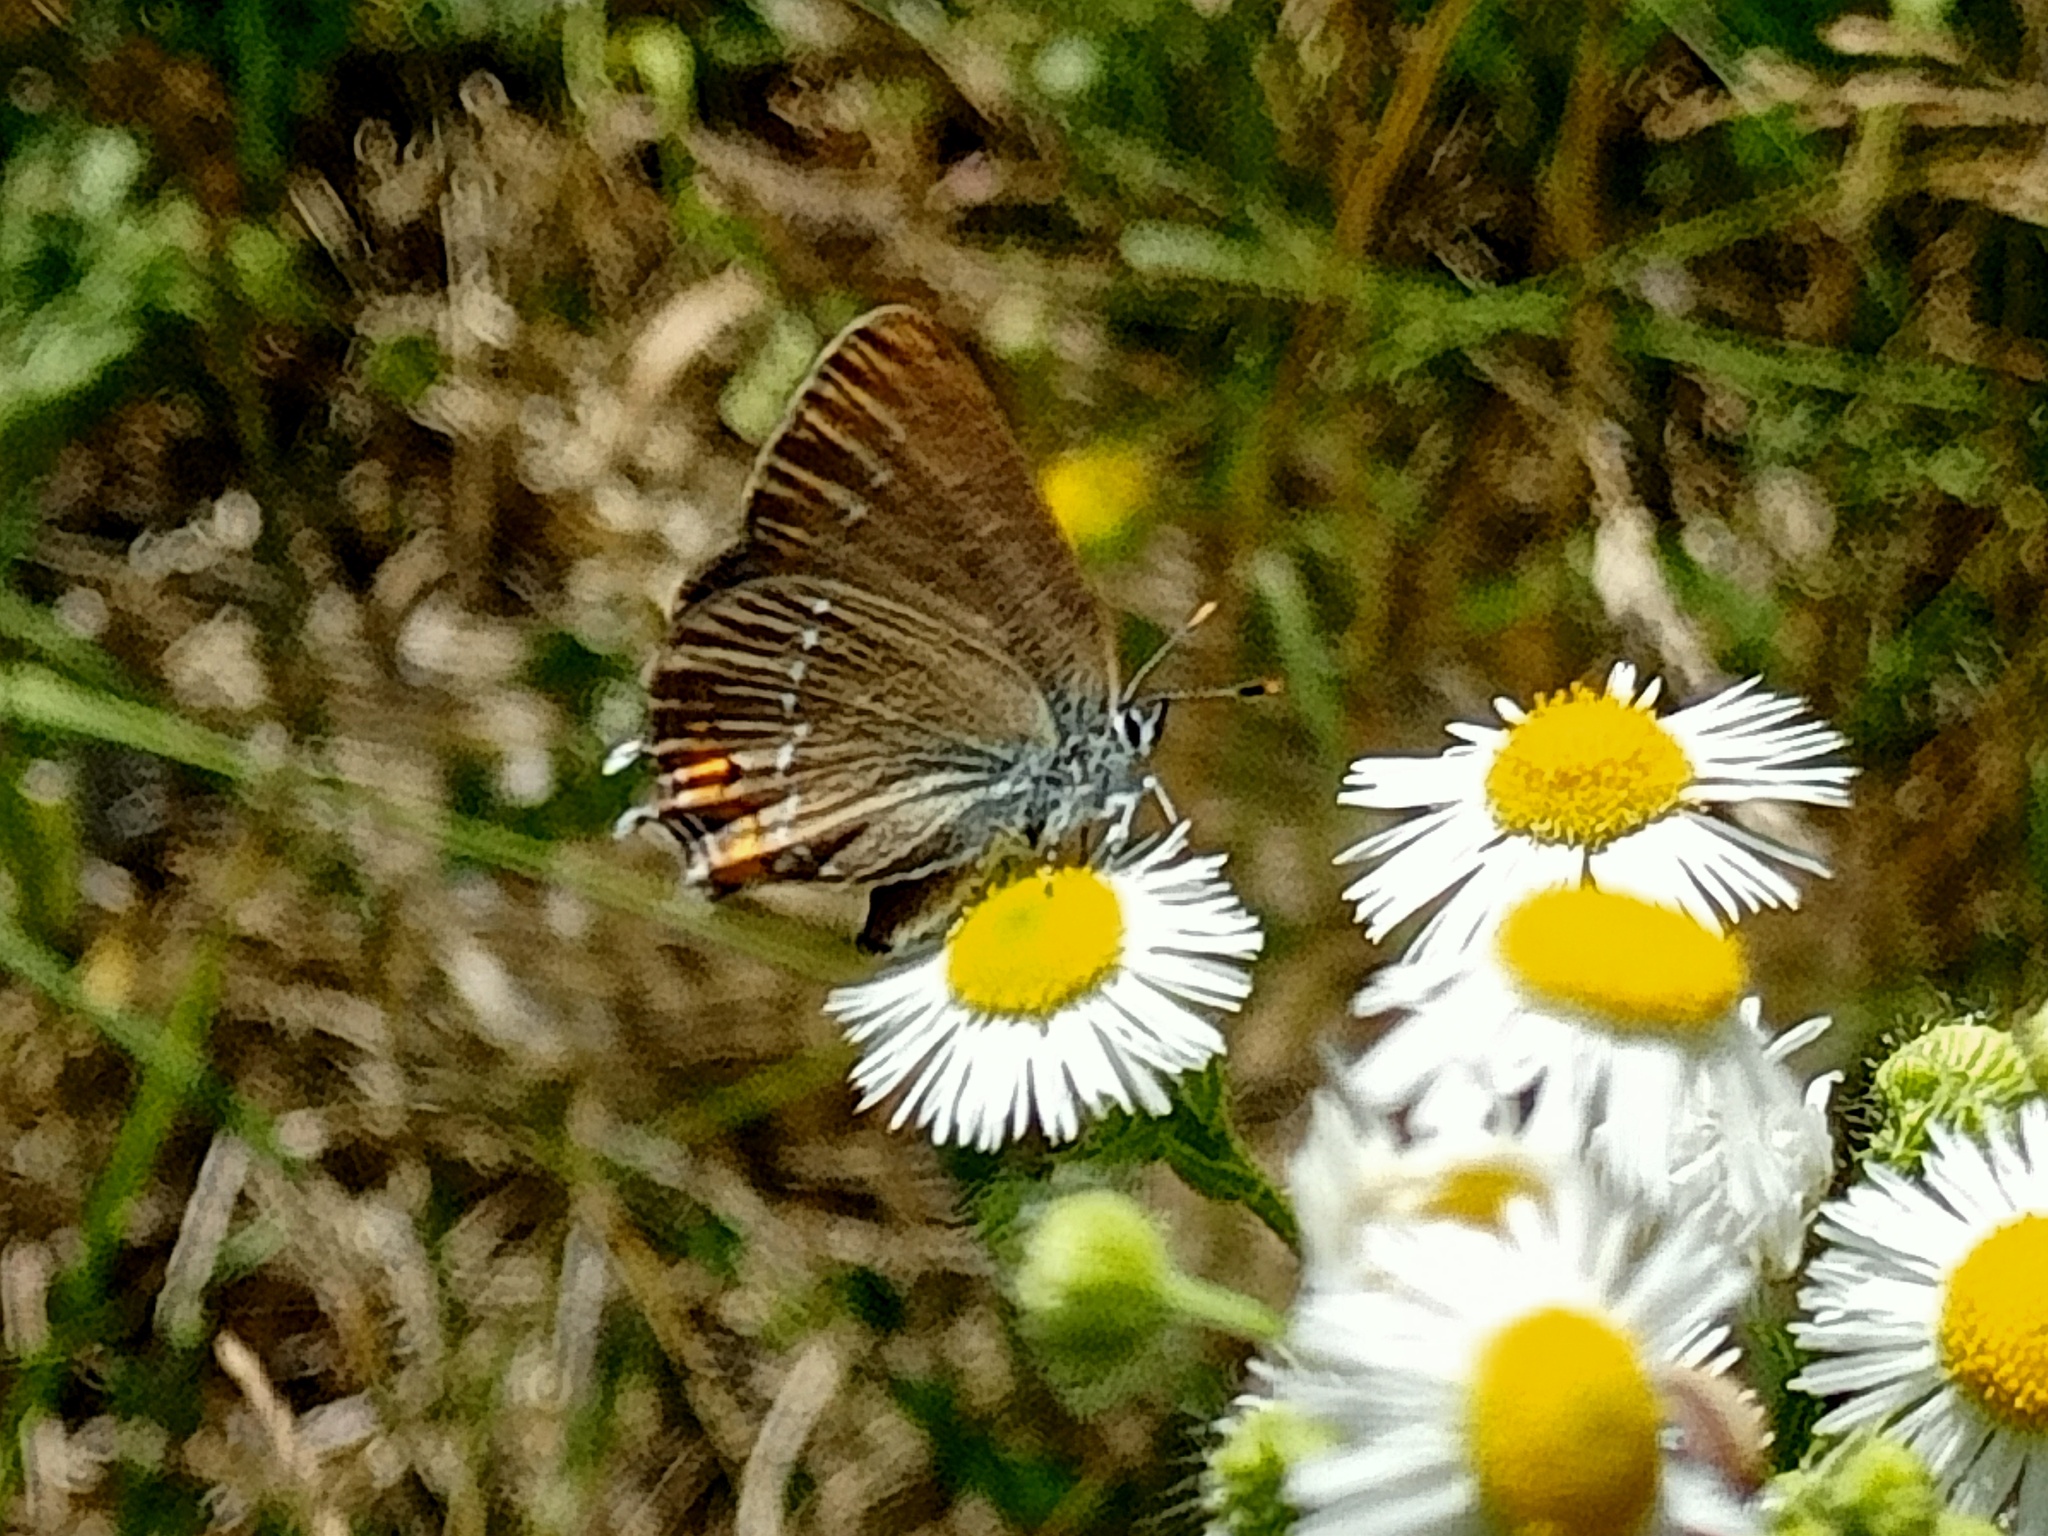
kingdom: Animalia
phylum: Arthropoda
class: Insecta
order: Lepidoptera
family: Lycaenidae
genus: Strymon
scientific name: Strymon acaciae
